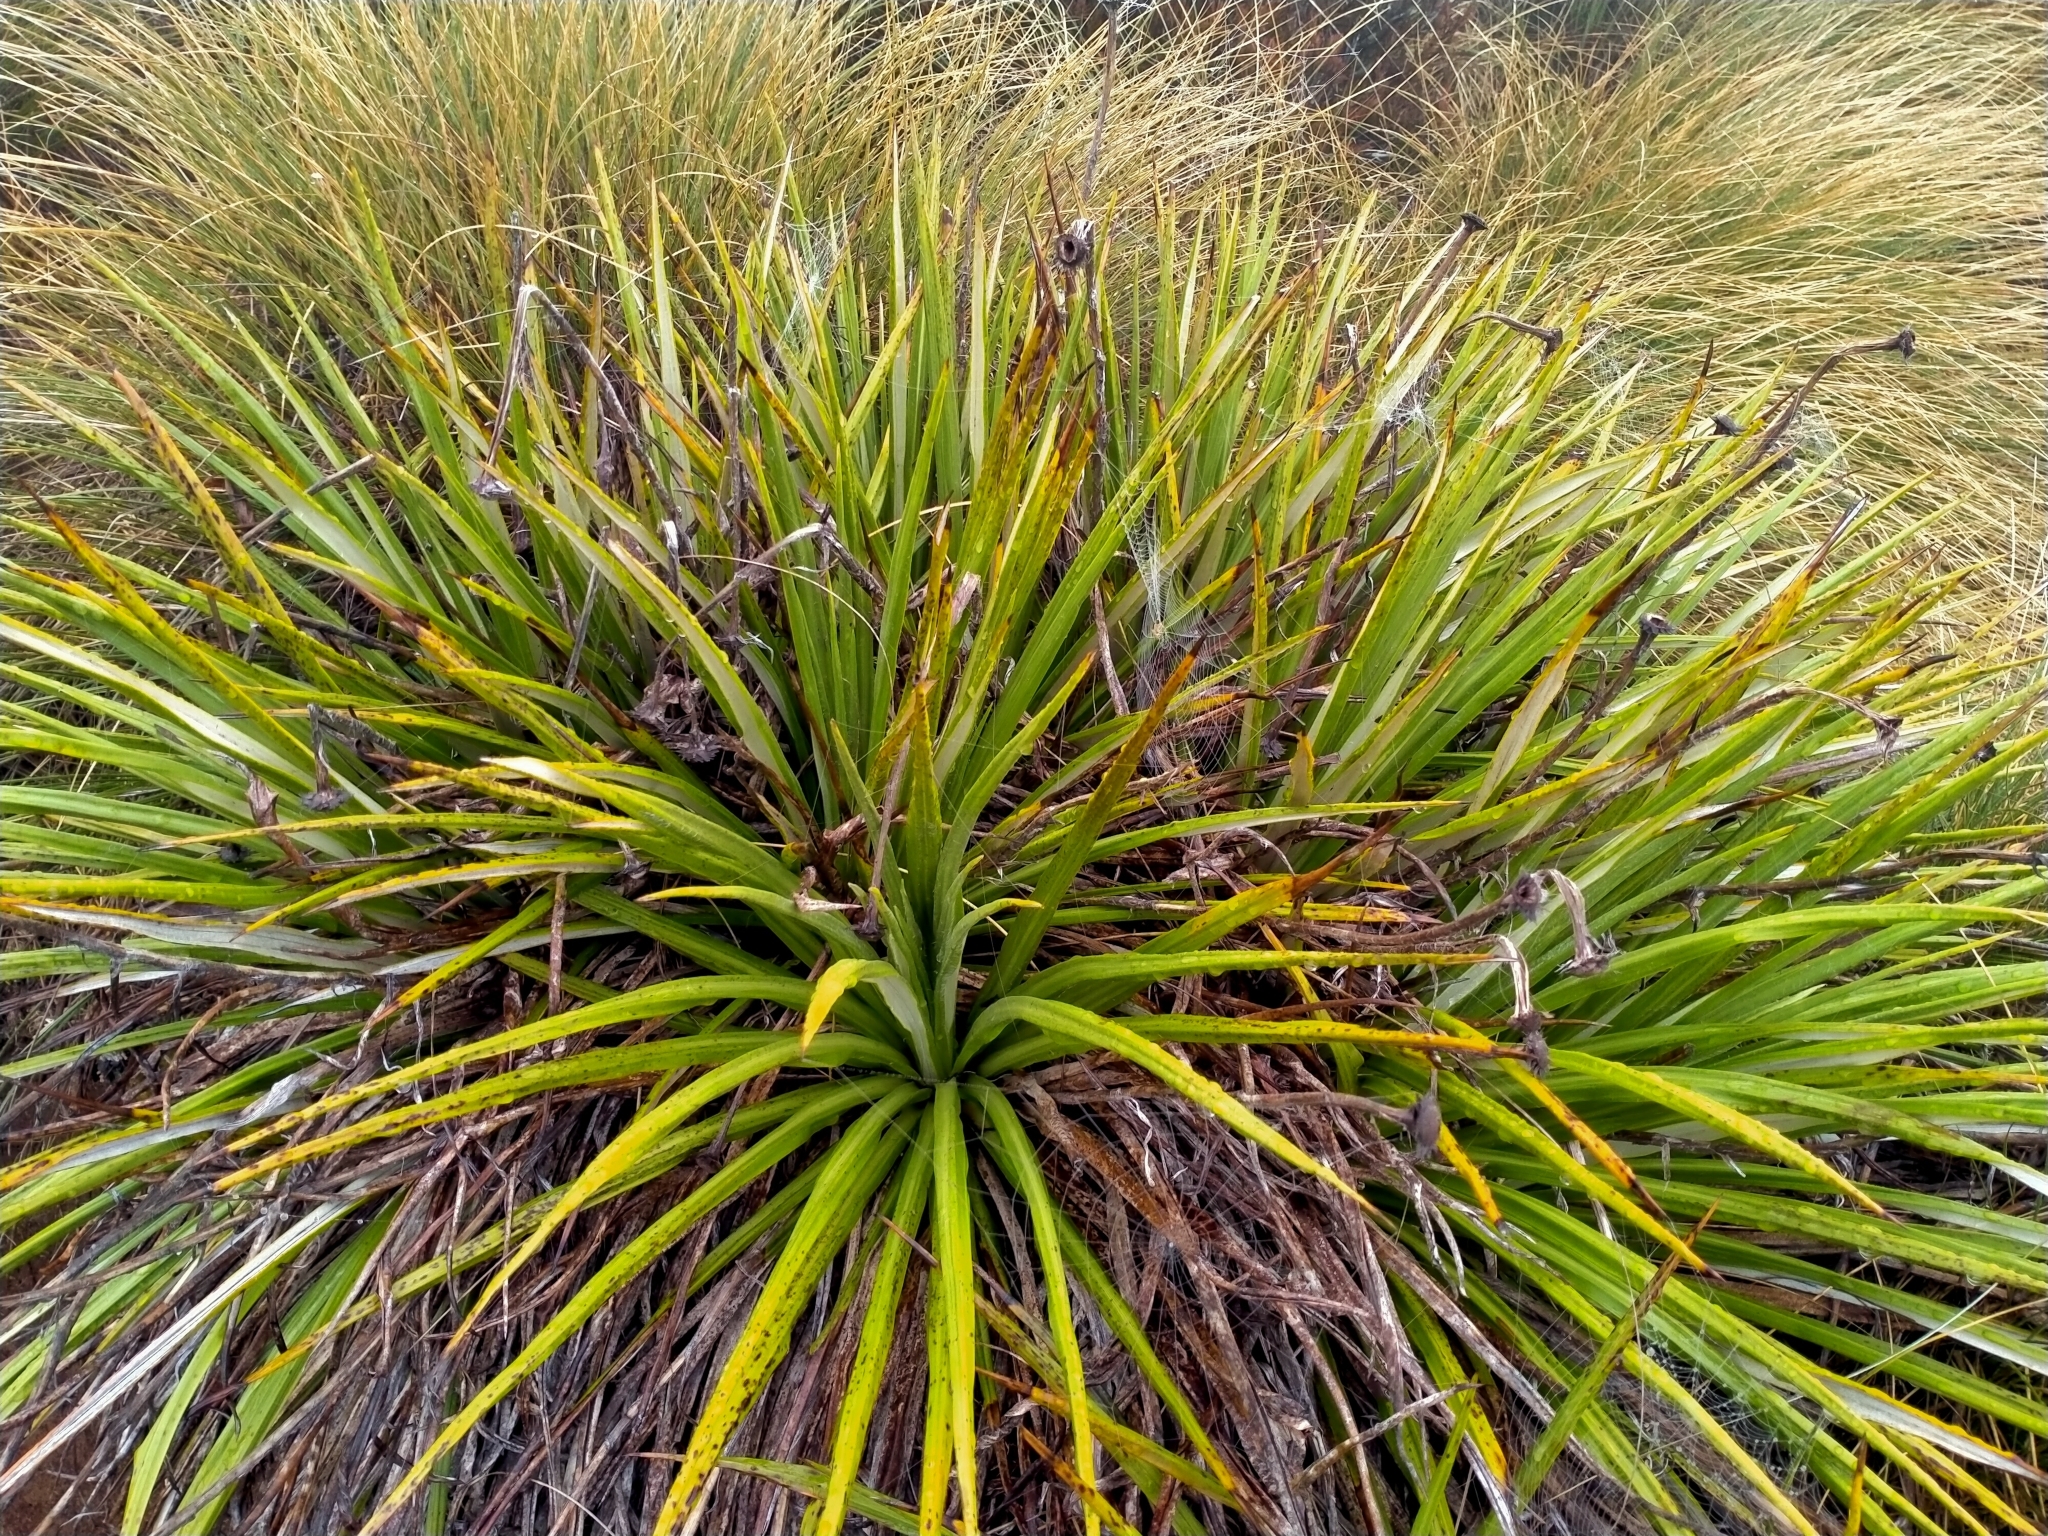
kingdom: Plantae
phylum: Tracheophyta
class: Magnoliopsida
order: Asterales
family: Asteraceae
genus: Celmisia
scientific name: Celmisia petriei
